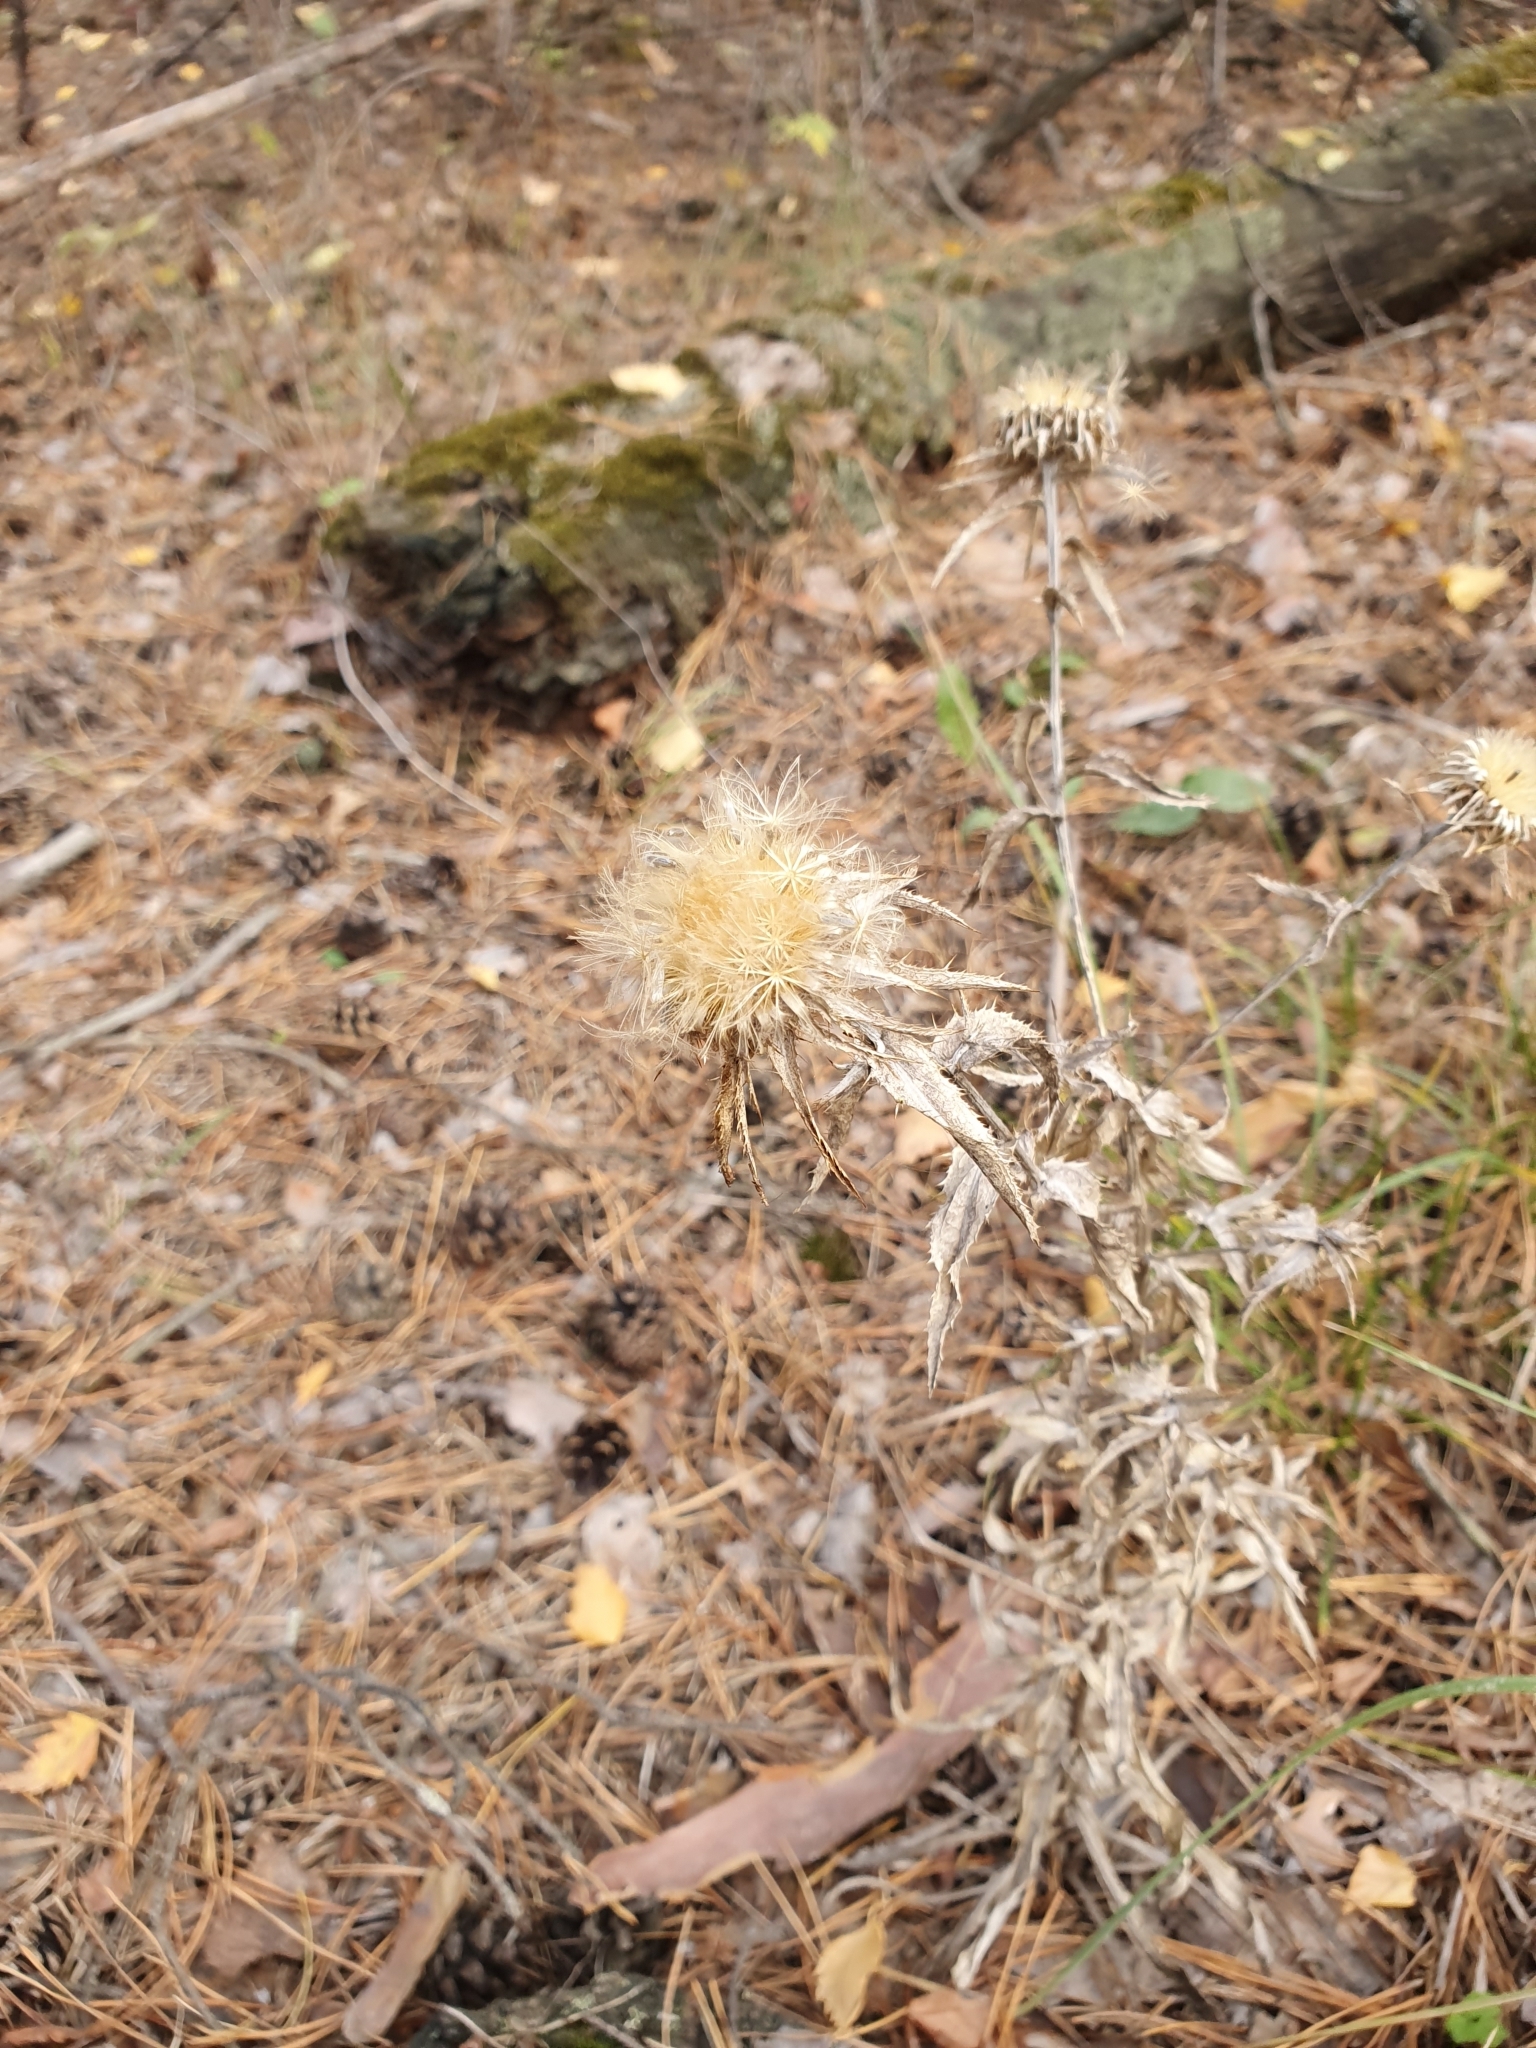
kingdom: Plantae
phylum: Tracheophyta
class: Magnoliopsida
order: Asterales
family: Asteraceae
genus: Carlina
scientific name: Carlina biebersteinii
